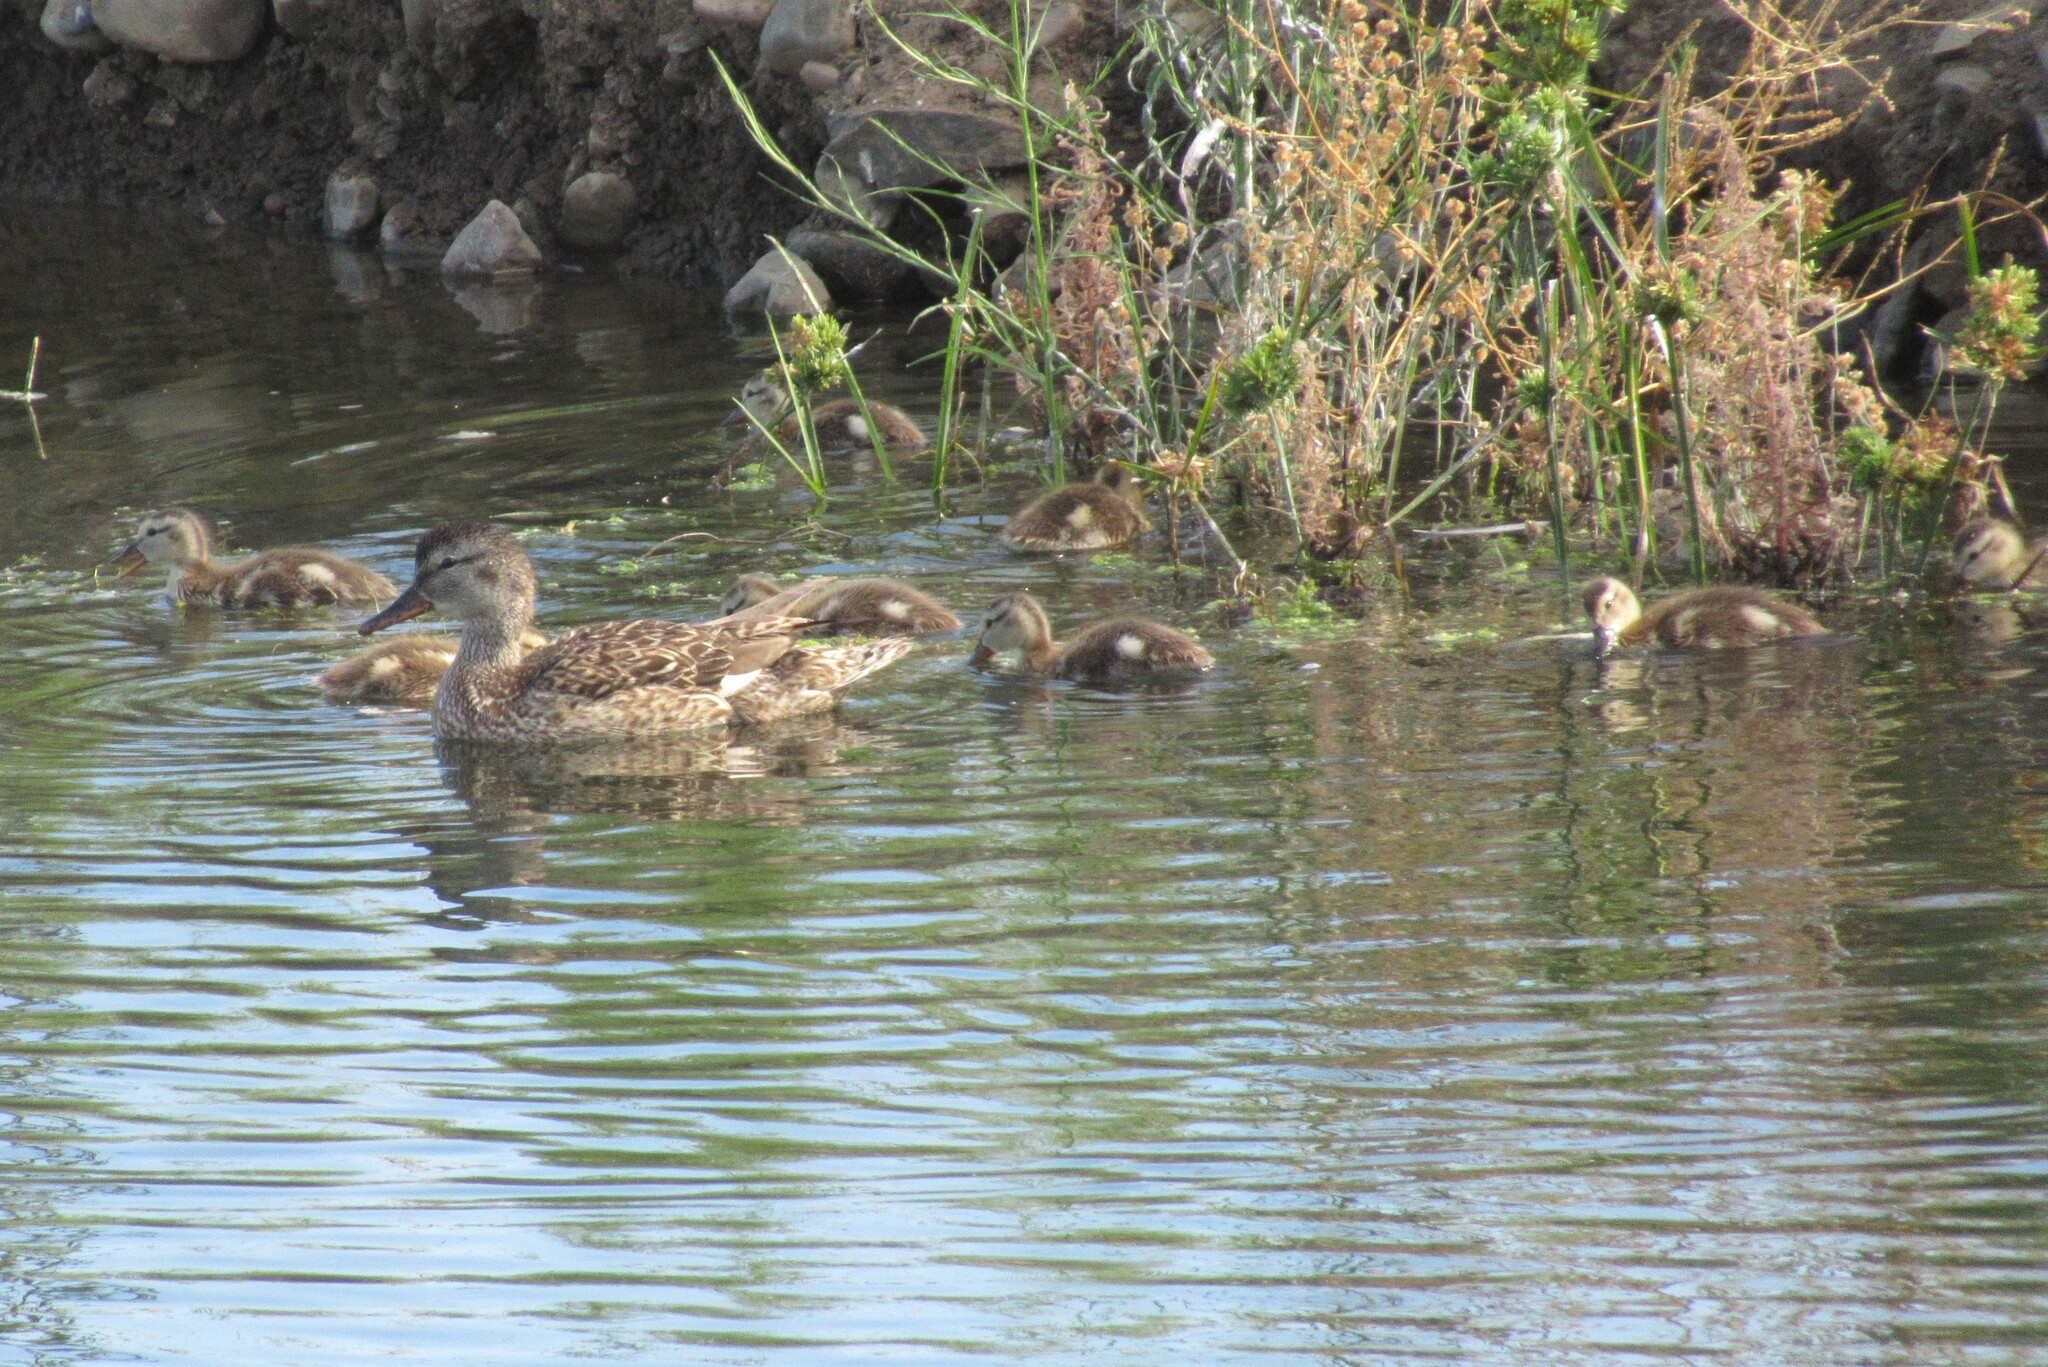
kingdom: Animalia
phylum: Chordata
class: Aves
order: Anseriformes
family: Anatidae
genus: Mareca
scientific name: Mareca strepera
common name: Gadwall
